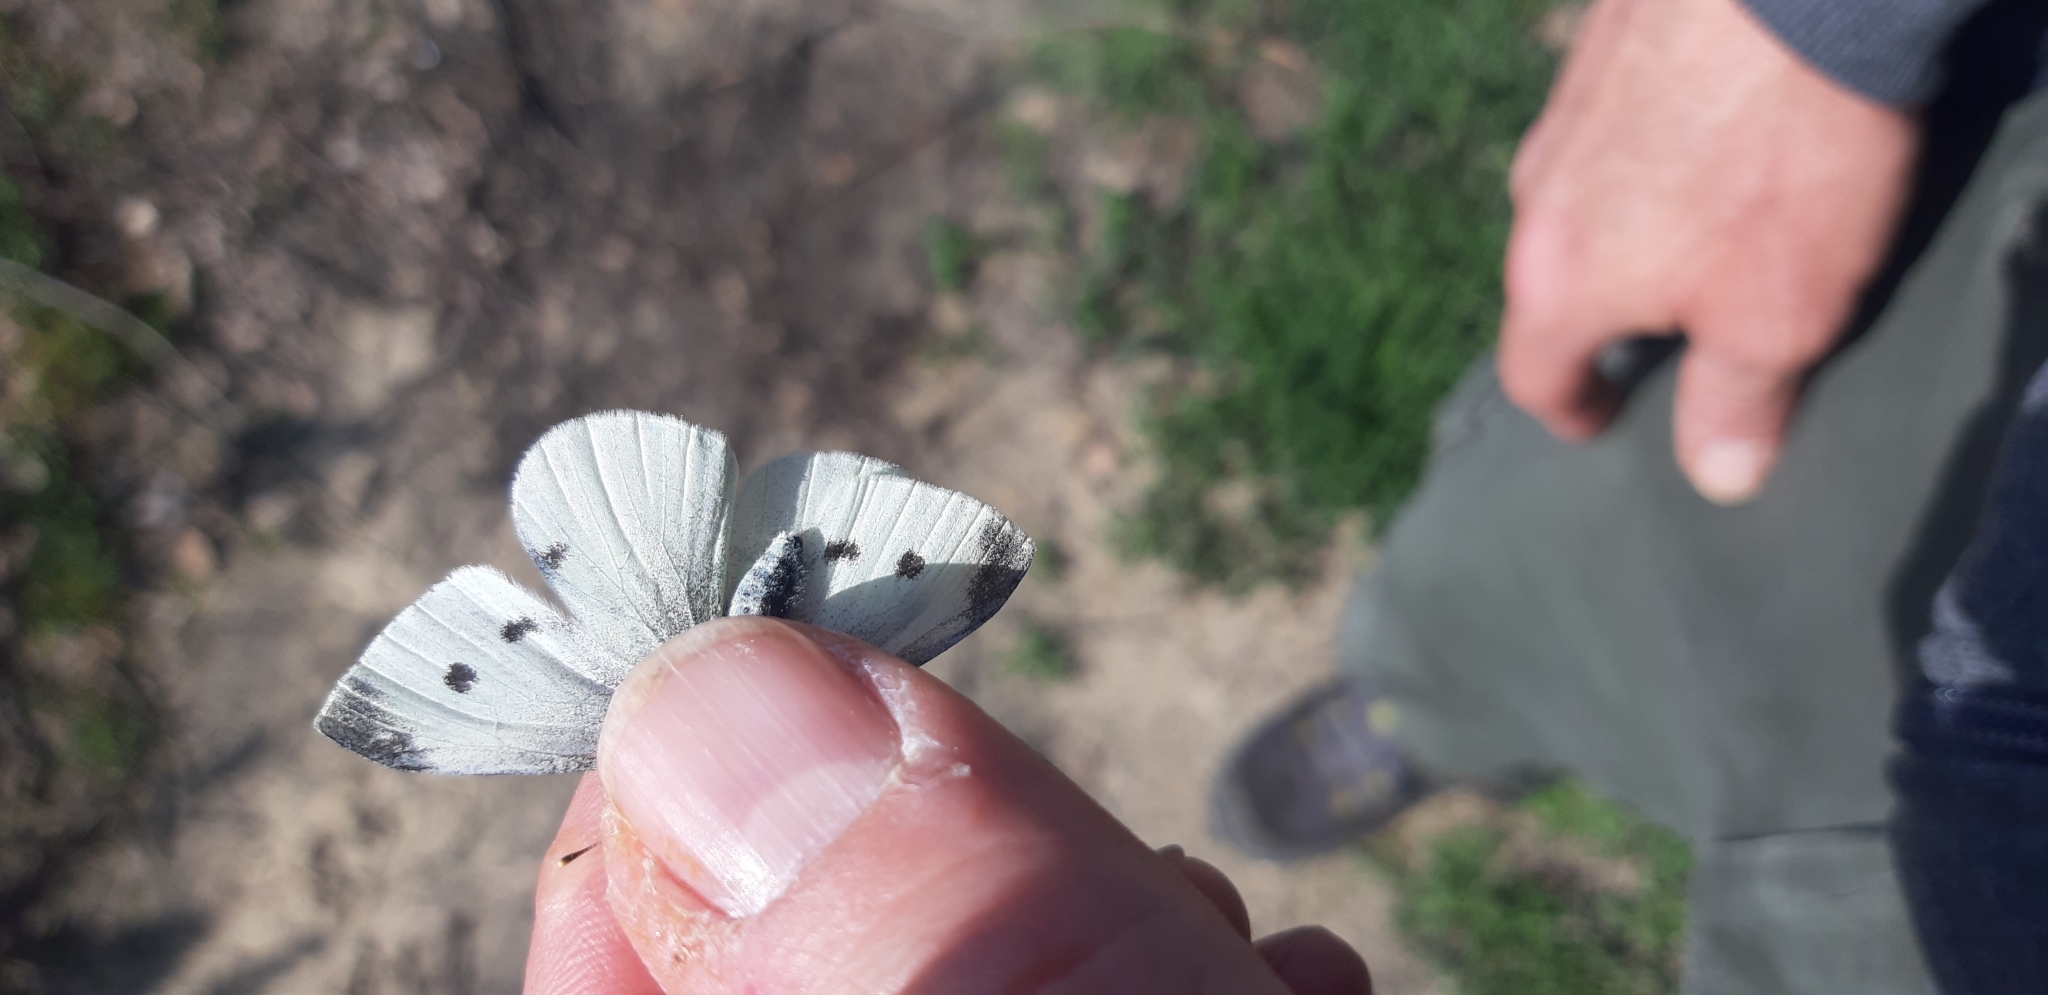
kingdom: Animalia
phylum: Arthropoda
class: Insecta
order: Lepidoptera
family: Pieridae
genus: Pieris
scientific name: Pieris rapae
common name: Small white
